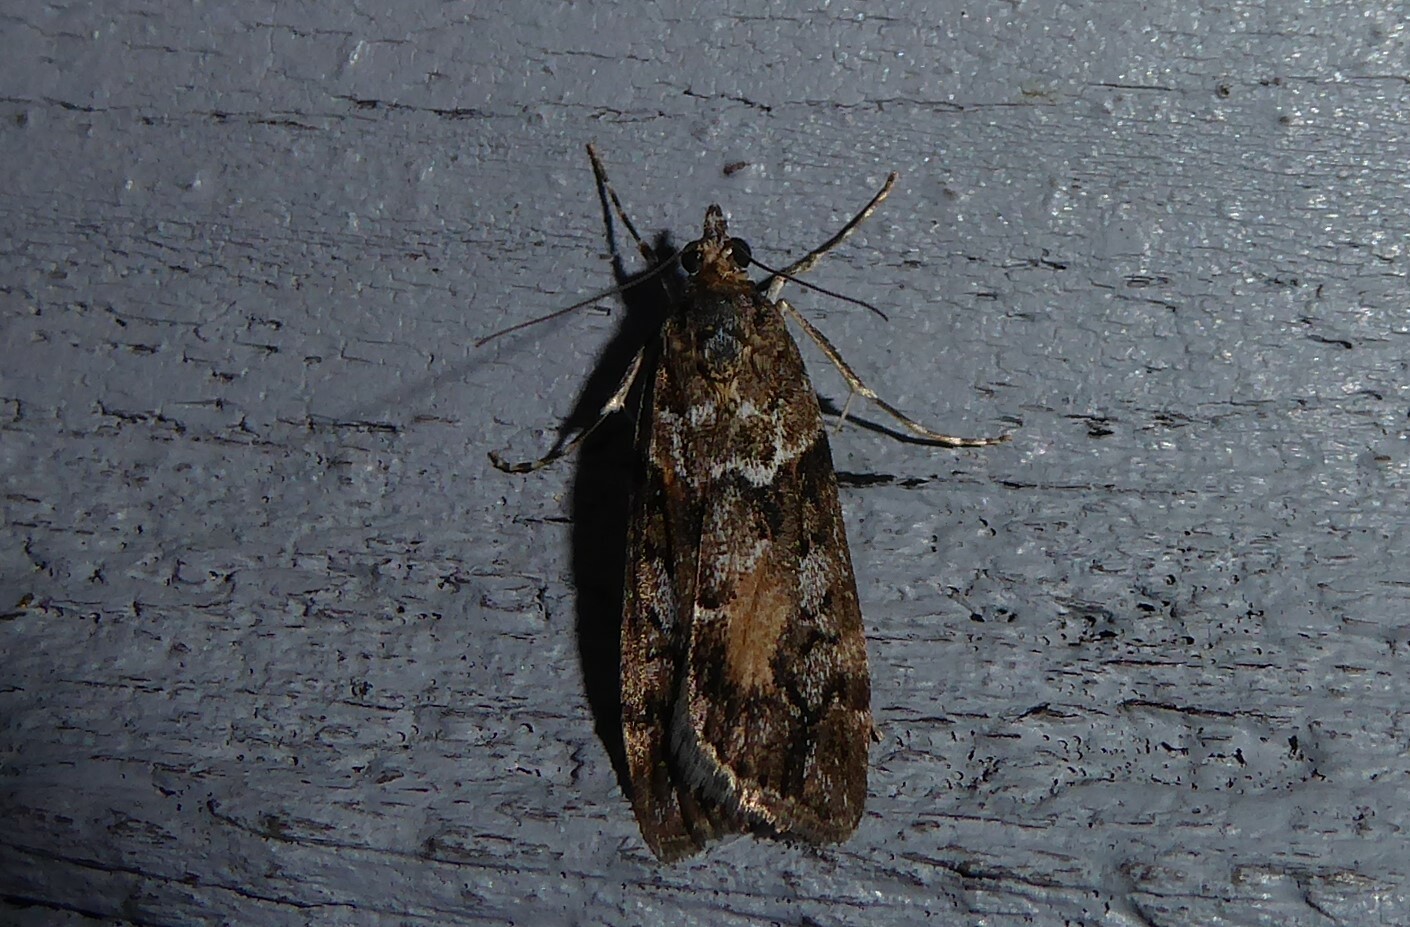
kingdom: Animalia
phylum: Arthropoda
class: Insecta
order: Lepidoptera
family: Crambidae
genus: Eudonia
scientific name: Eudonia submarginalis
